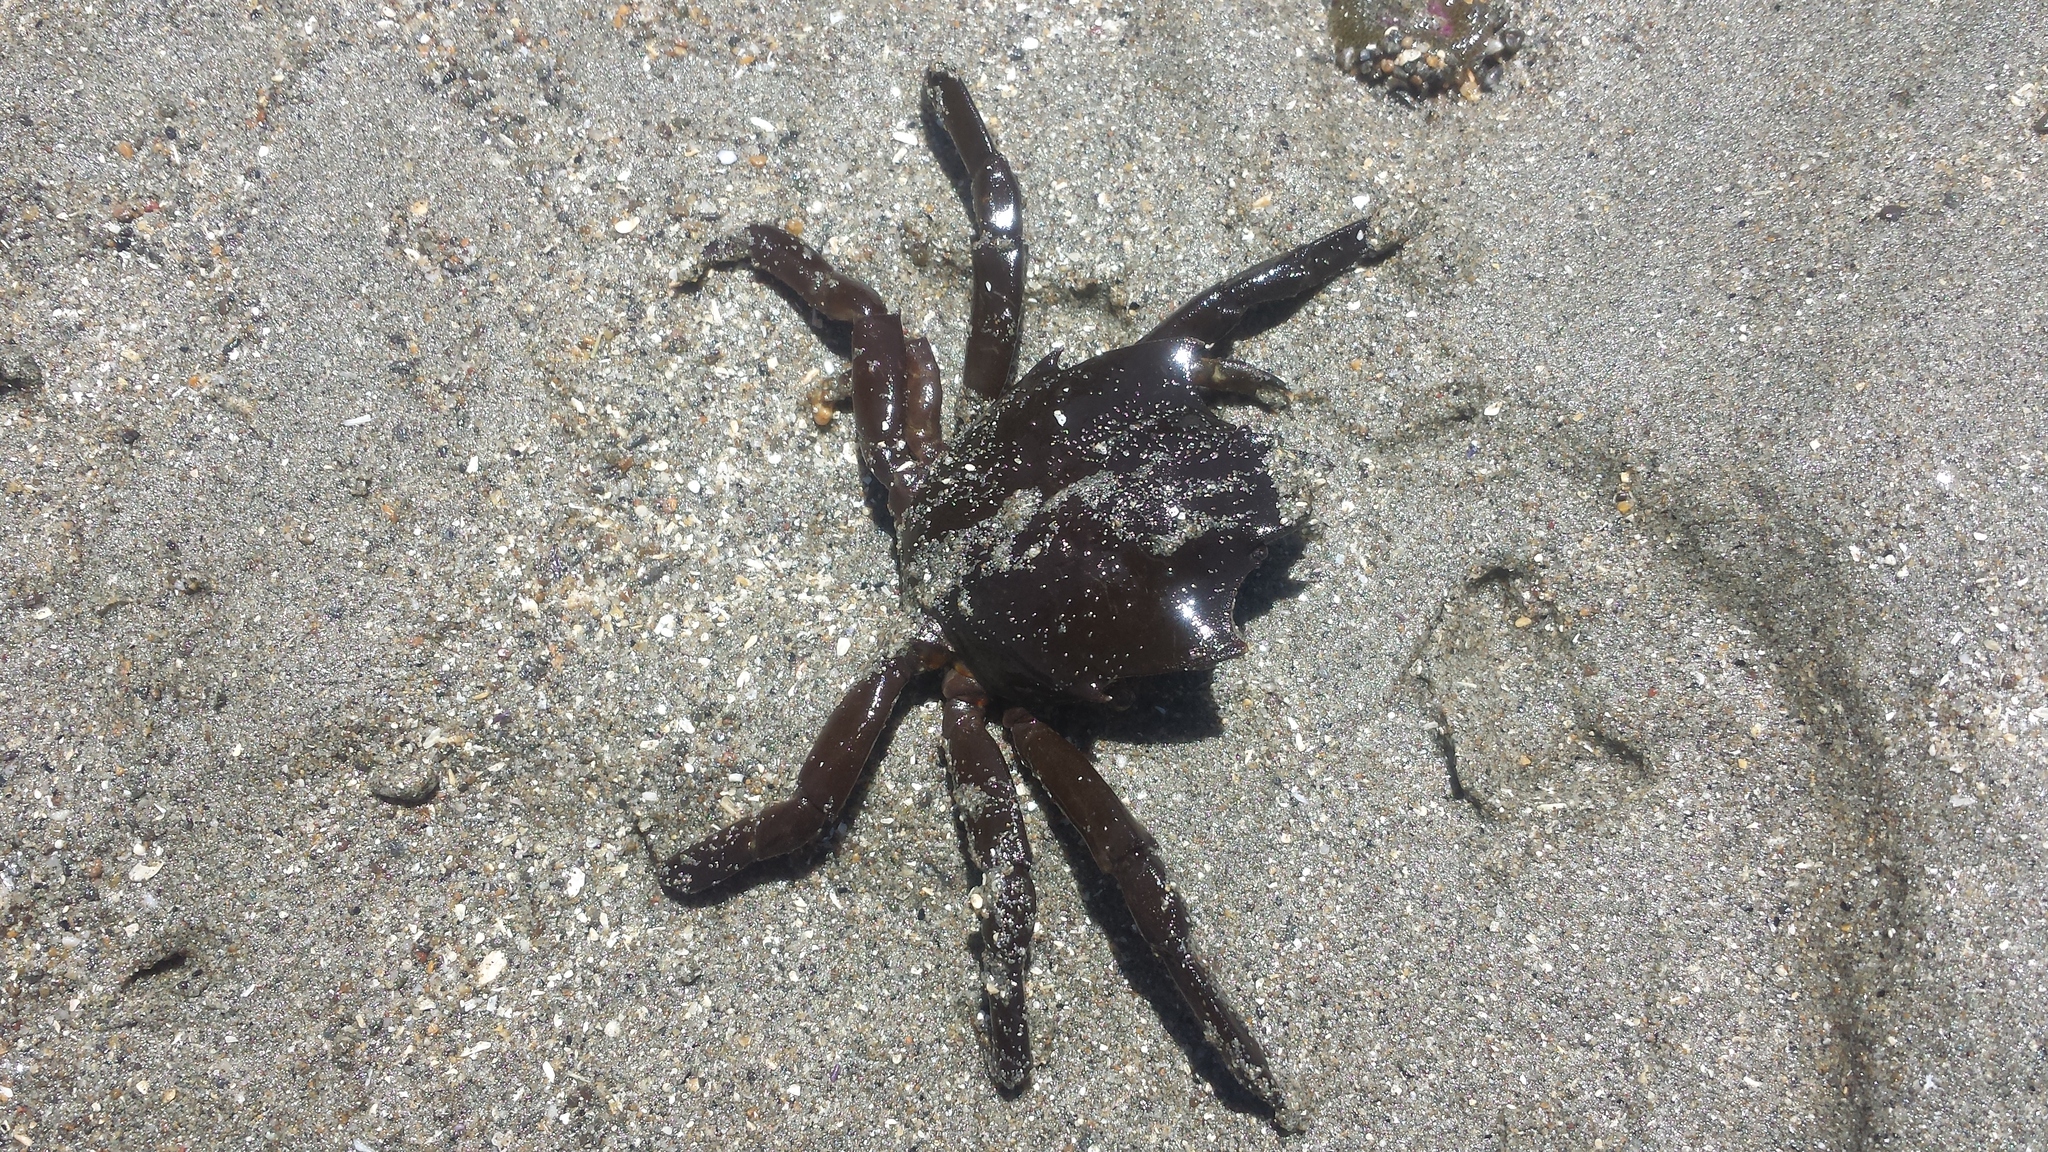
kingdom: Animalia
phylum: Arthropoda
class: Malacostraca
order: Decapoda
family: Epialtidae
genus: Pugettia
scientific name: Pugettia producta
